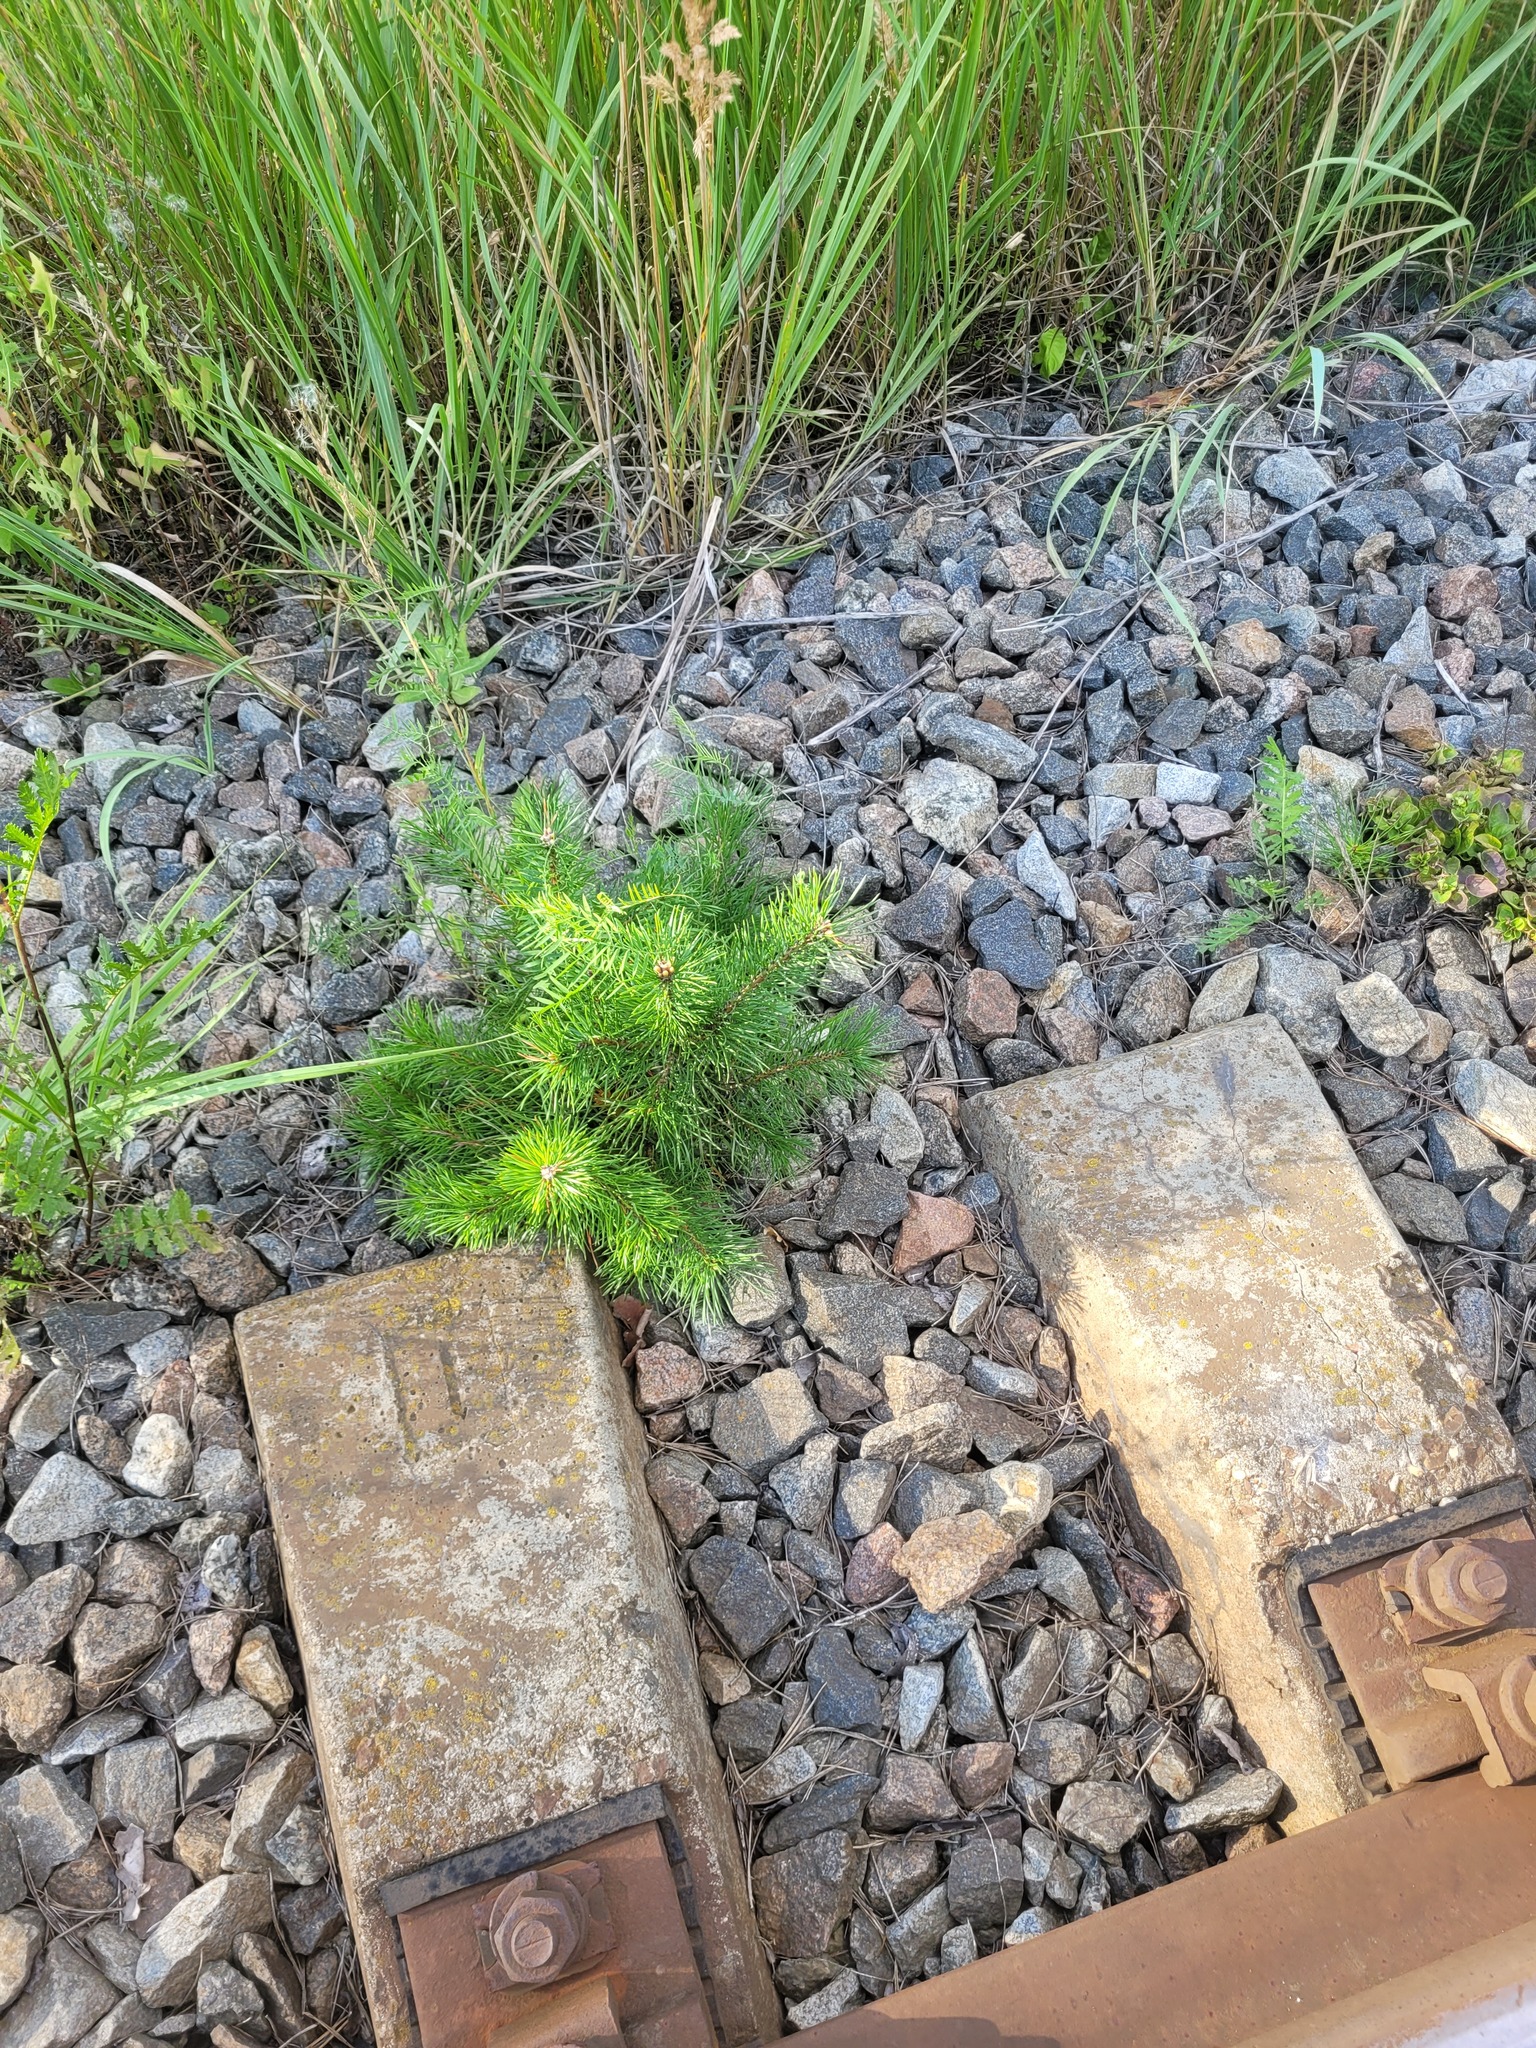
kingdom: Plantae
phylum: Tracheophyta
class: Pinopsida
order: Pinales
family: Pinaceae
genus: Pinus
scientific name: Pinus sylvestris
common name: Scots pine
